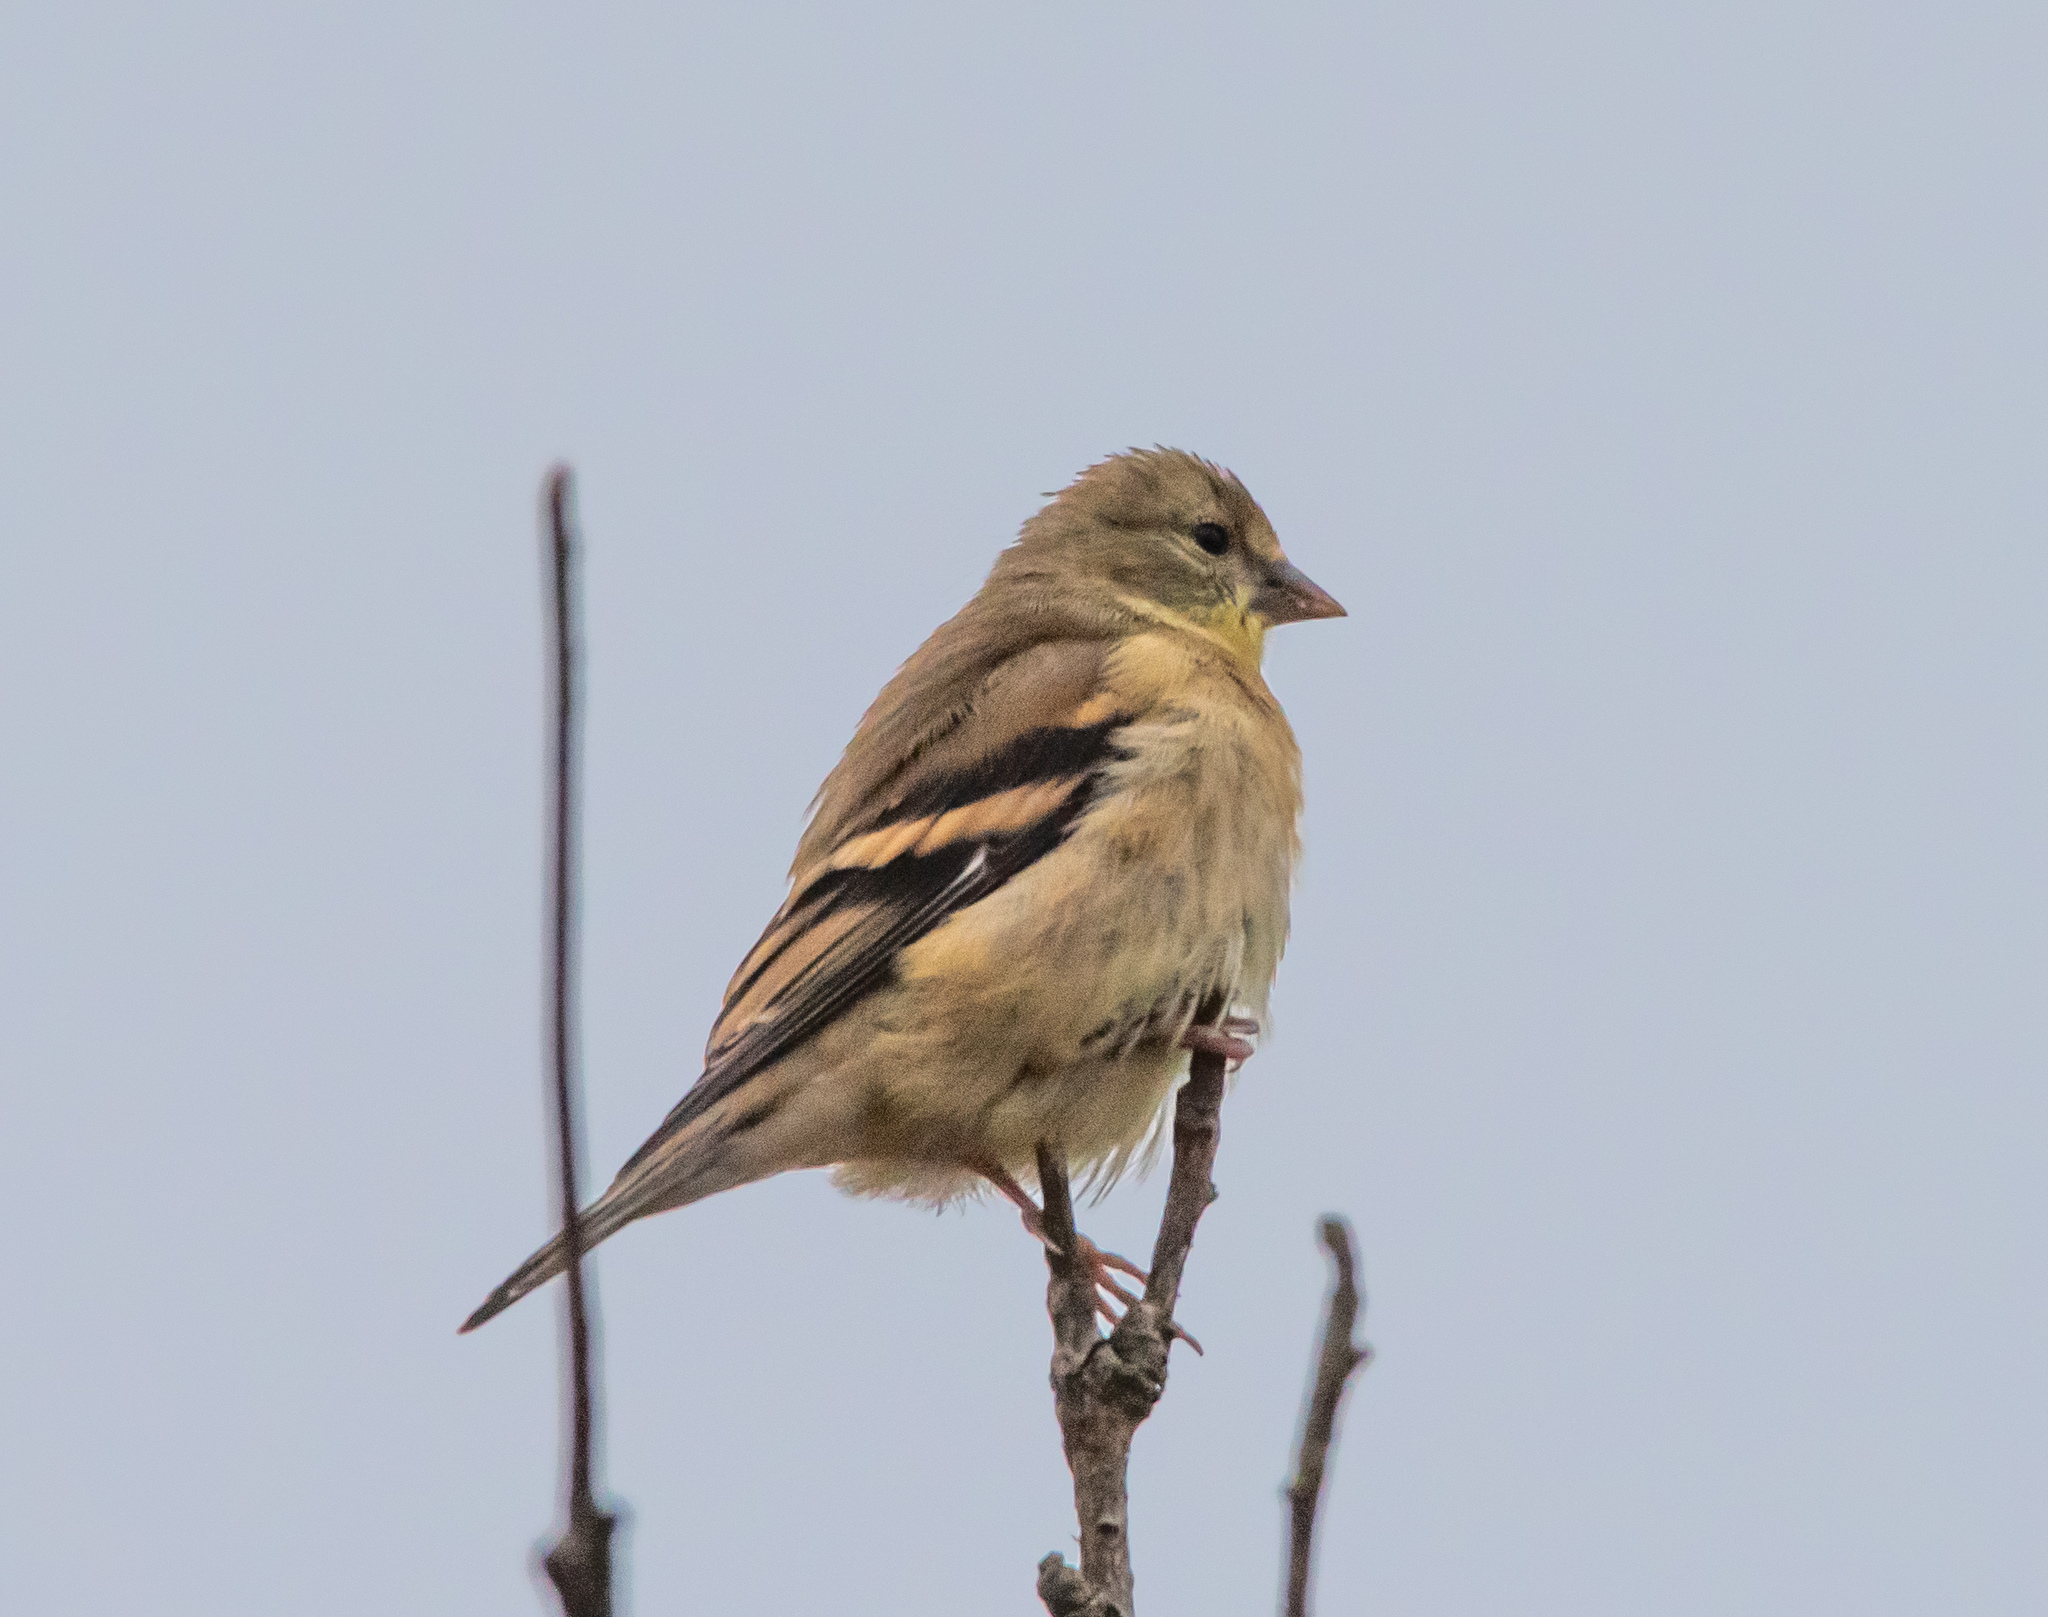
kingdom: Animalia
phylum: Chordata
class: Aves
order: Passeriformes
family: Fringillidae
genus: Spinus
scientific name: Spinus tristis
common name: American goldfinch
